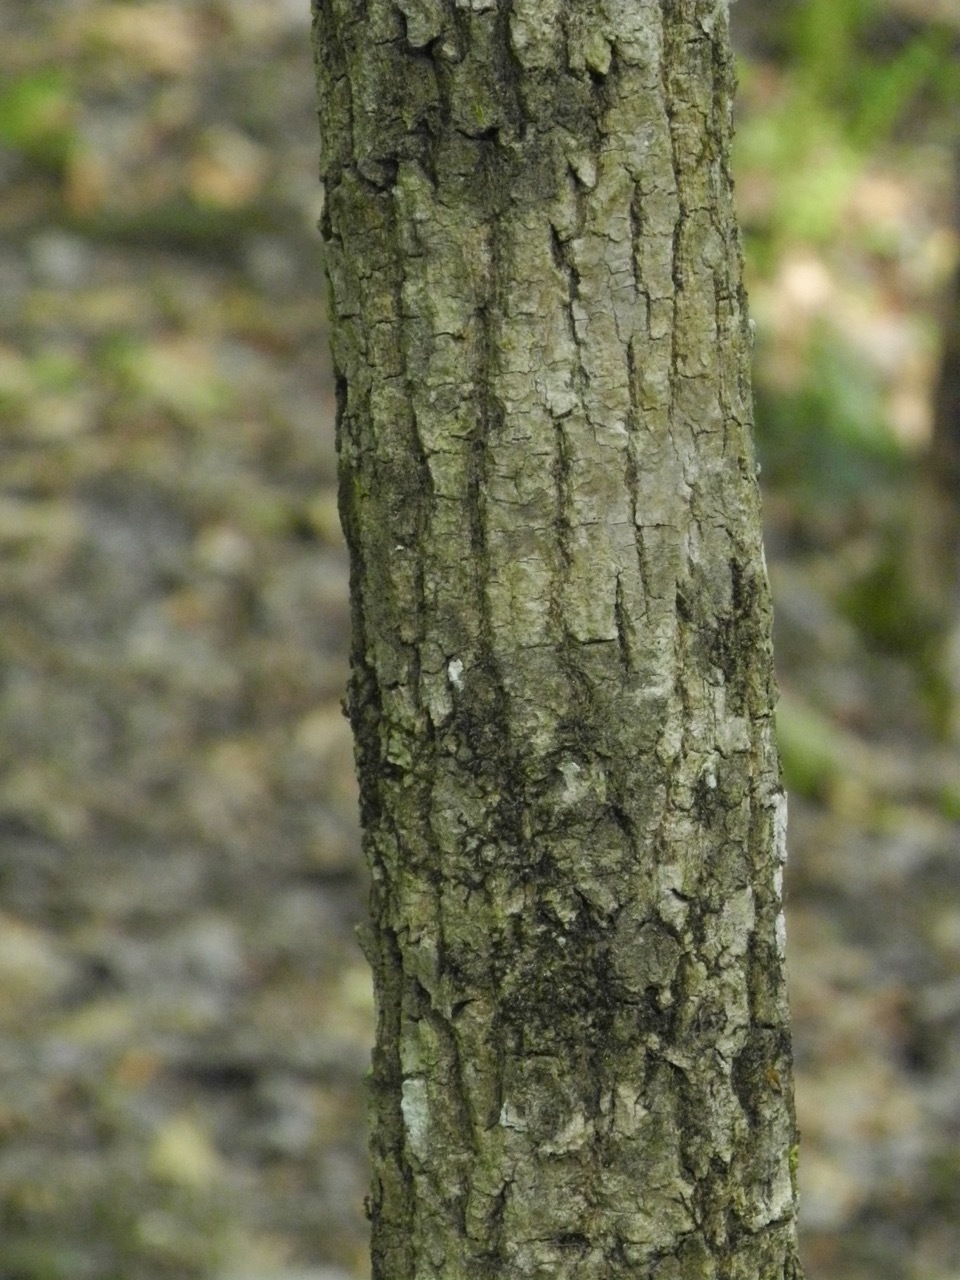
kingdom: Plantae
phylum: Tracheophyta
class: Magnoliopsida
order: Lamiales
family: Oleaceae
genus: Fraxinus
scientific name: Fraxinus pennsylvanica
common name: Green ash
